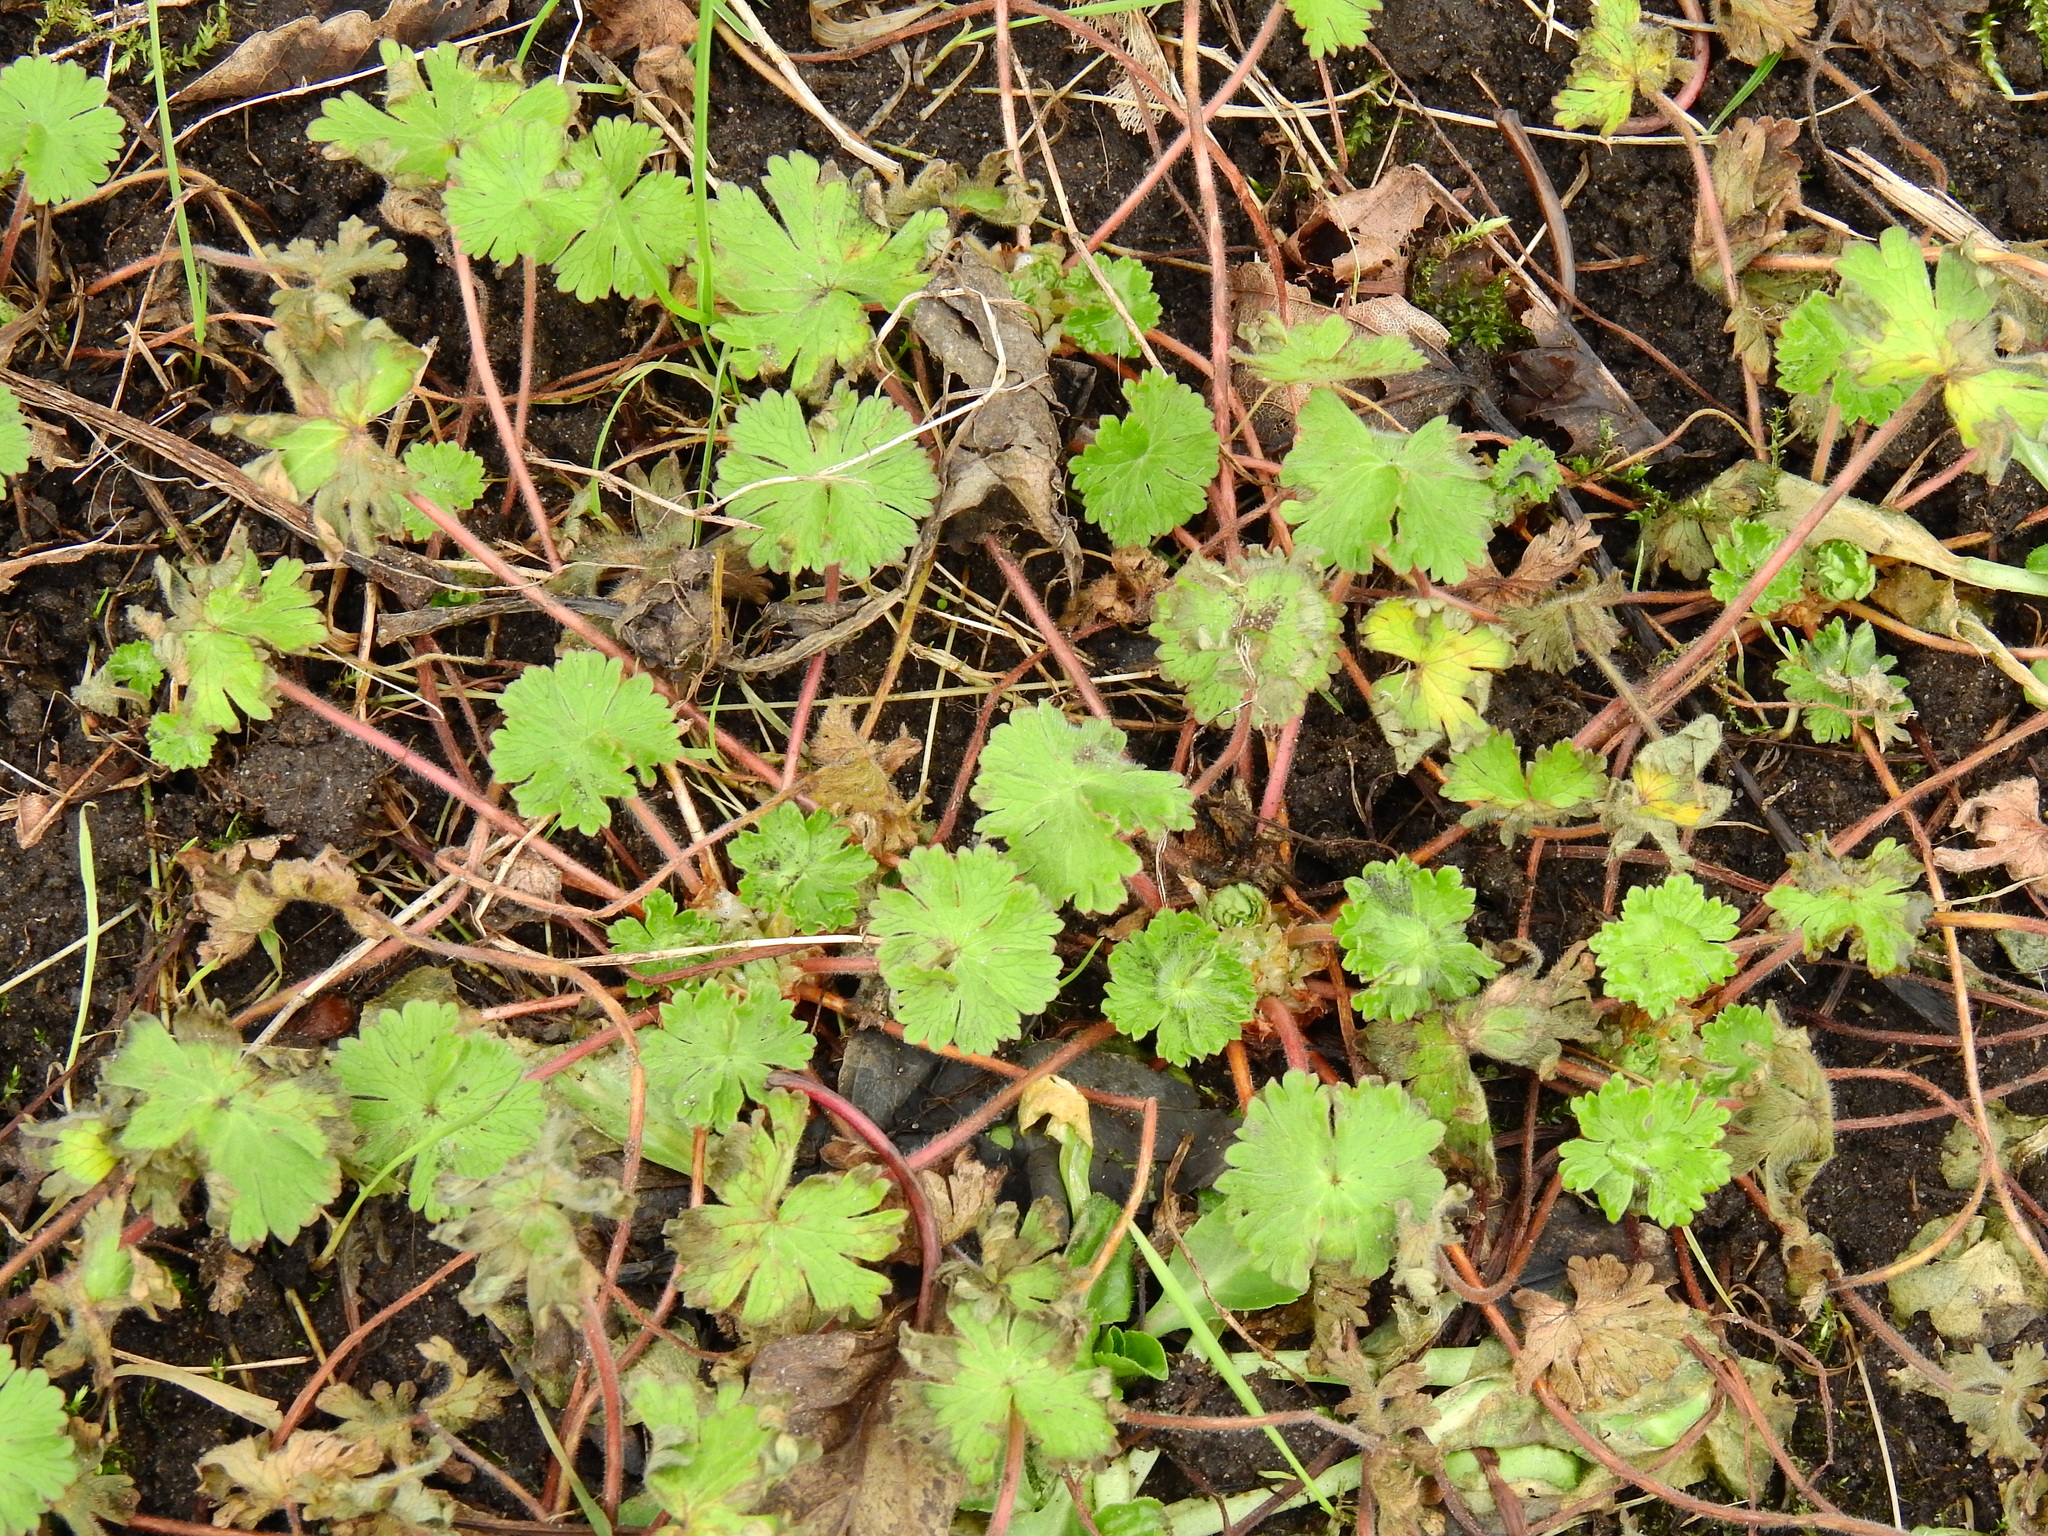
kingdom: Plantae
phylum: Tracheophyta
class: Magnoliopsida
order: Geraniales
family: Geraniaceae
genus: Geranium
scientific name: Geranium molle
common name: Dove's-foot crane's-bill
